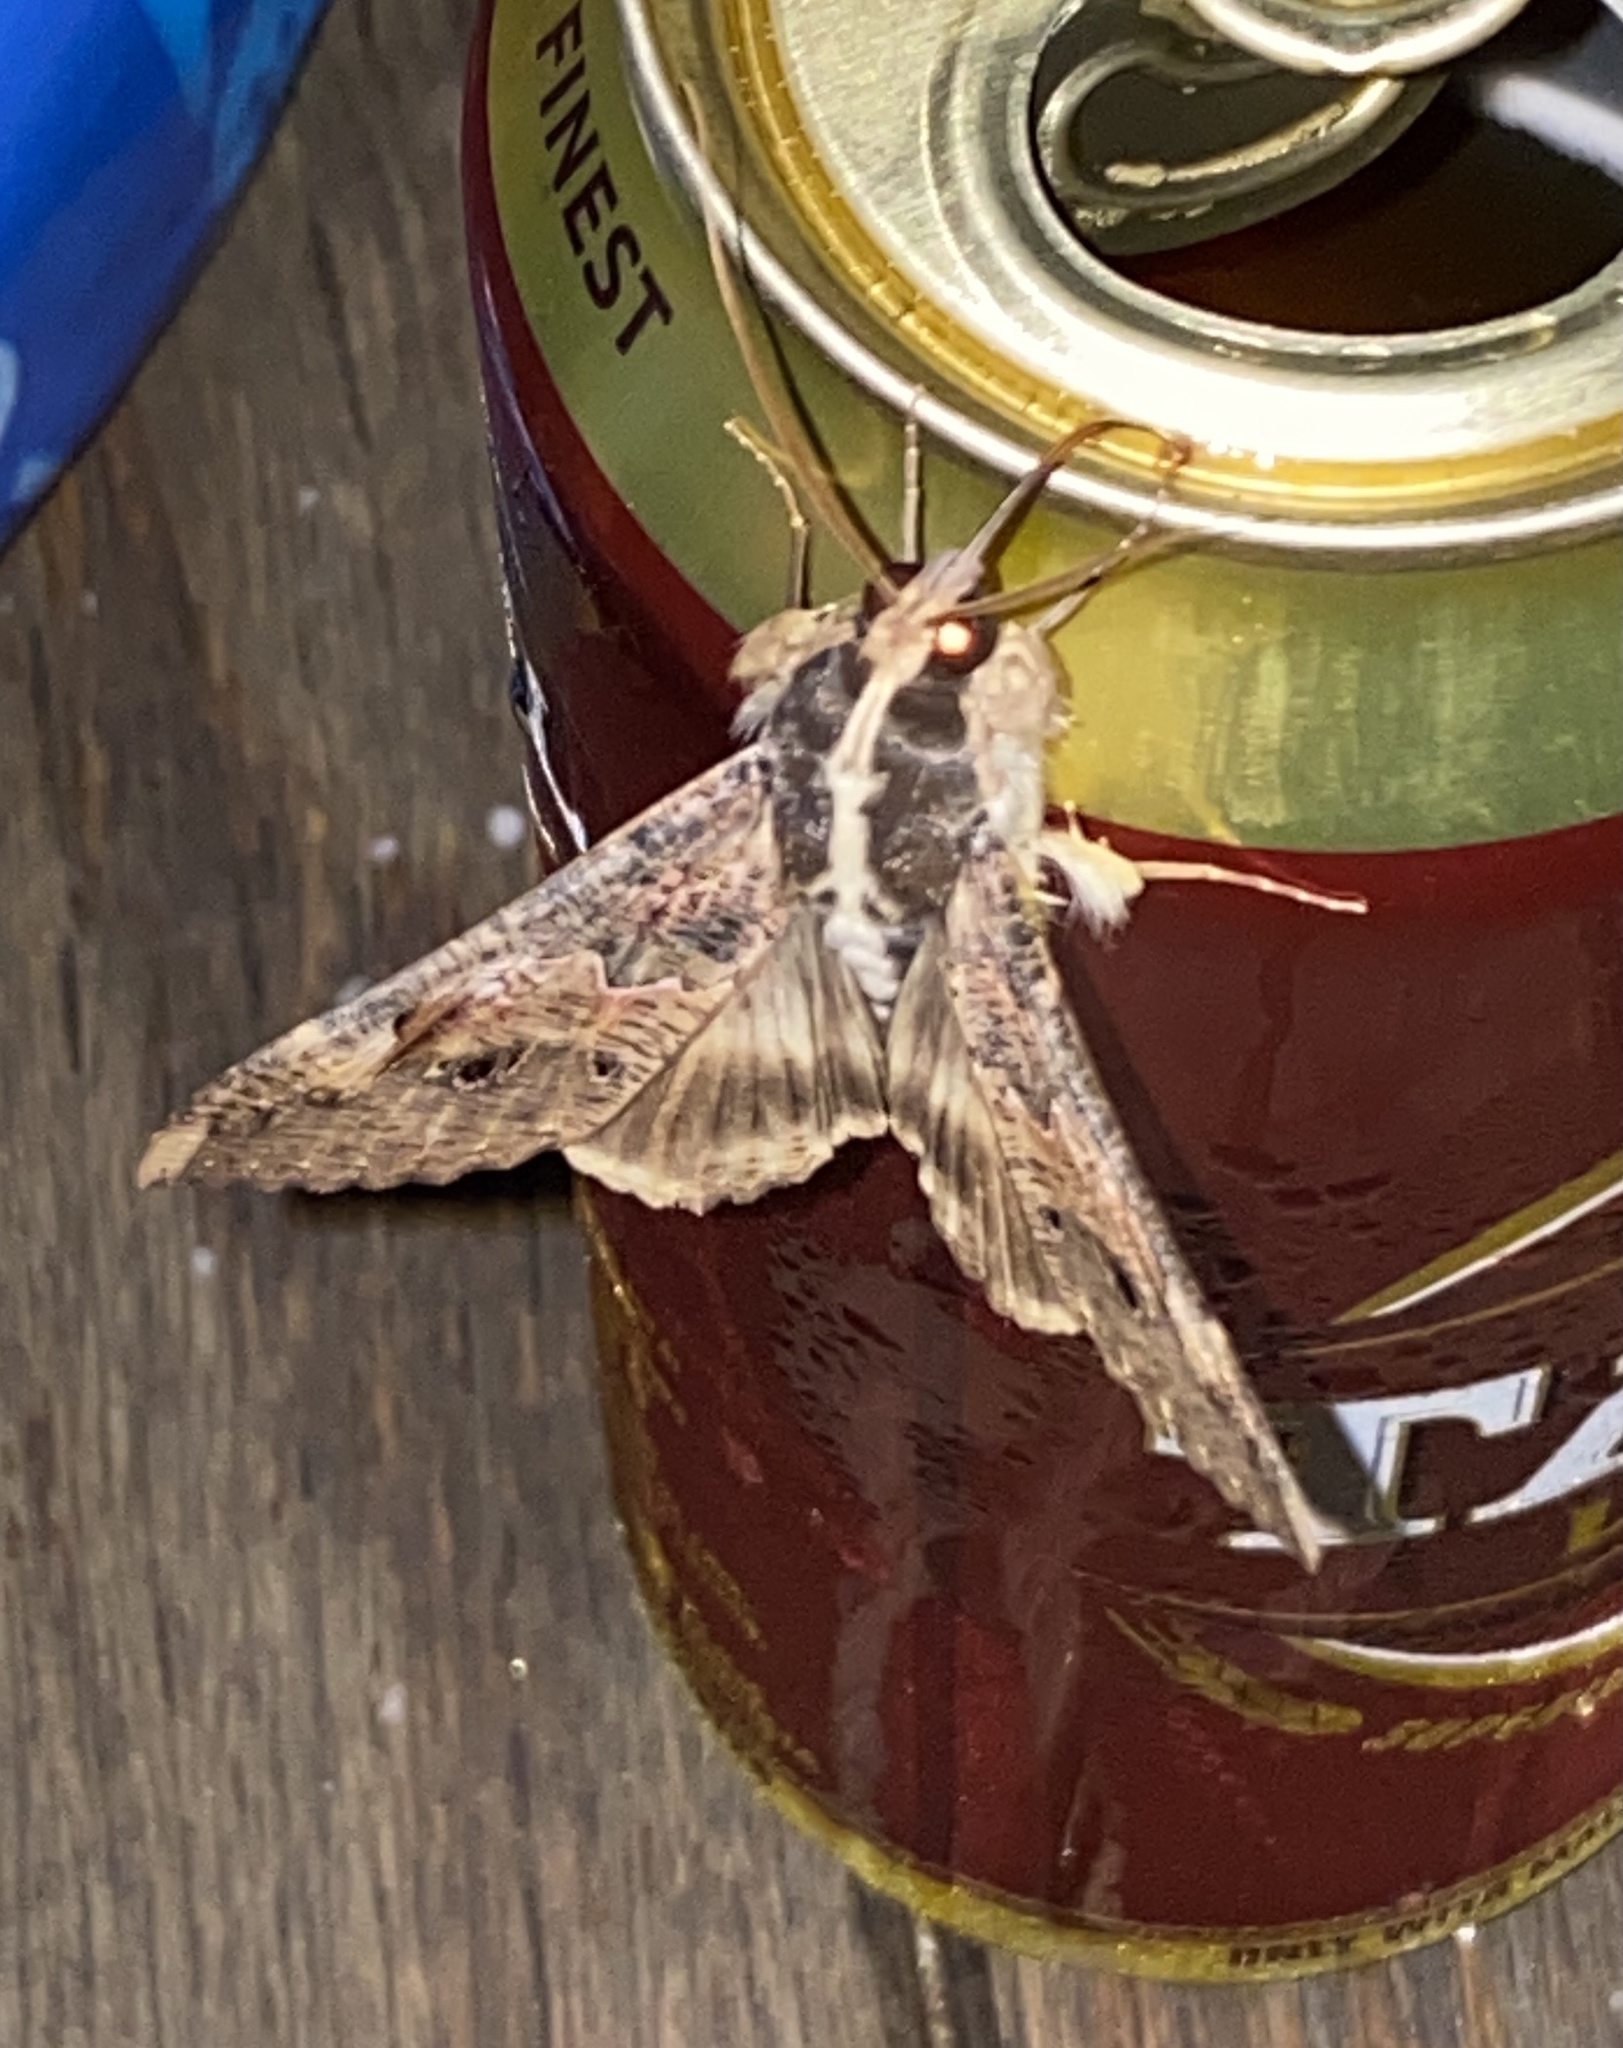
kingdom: Animalia
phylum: Arthropoda
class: Insecta
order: Lepidoptera
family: Erebidae
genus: Sphingomorpha
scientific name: Sphingomorpha chlorea
